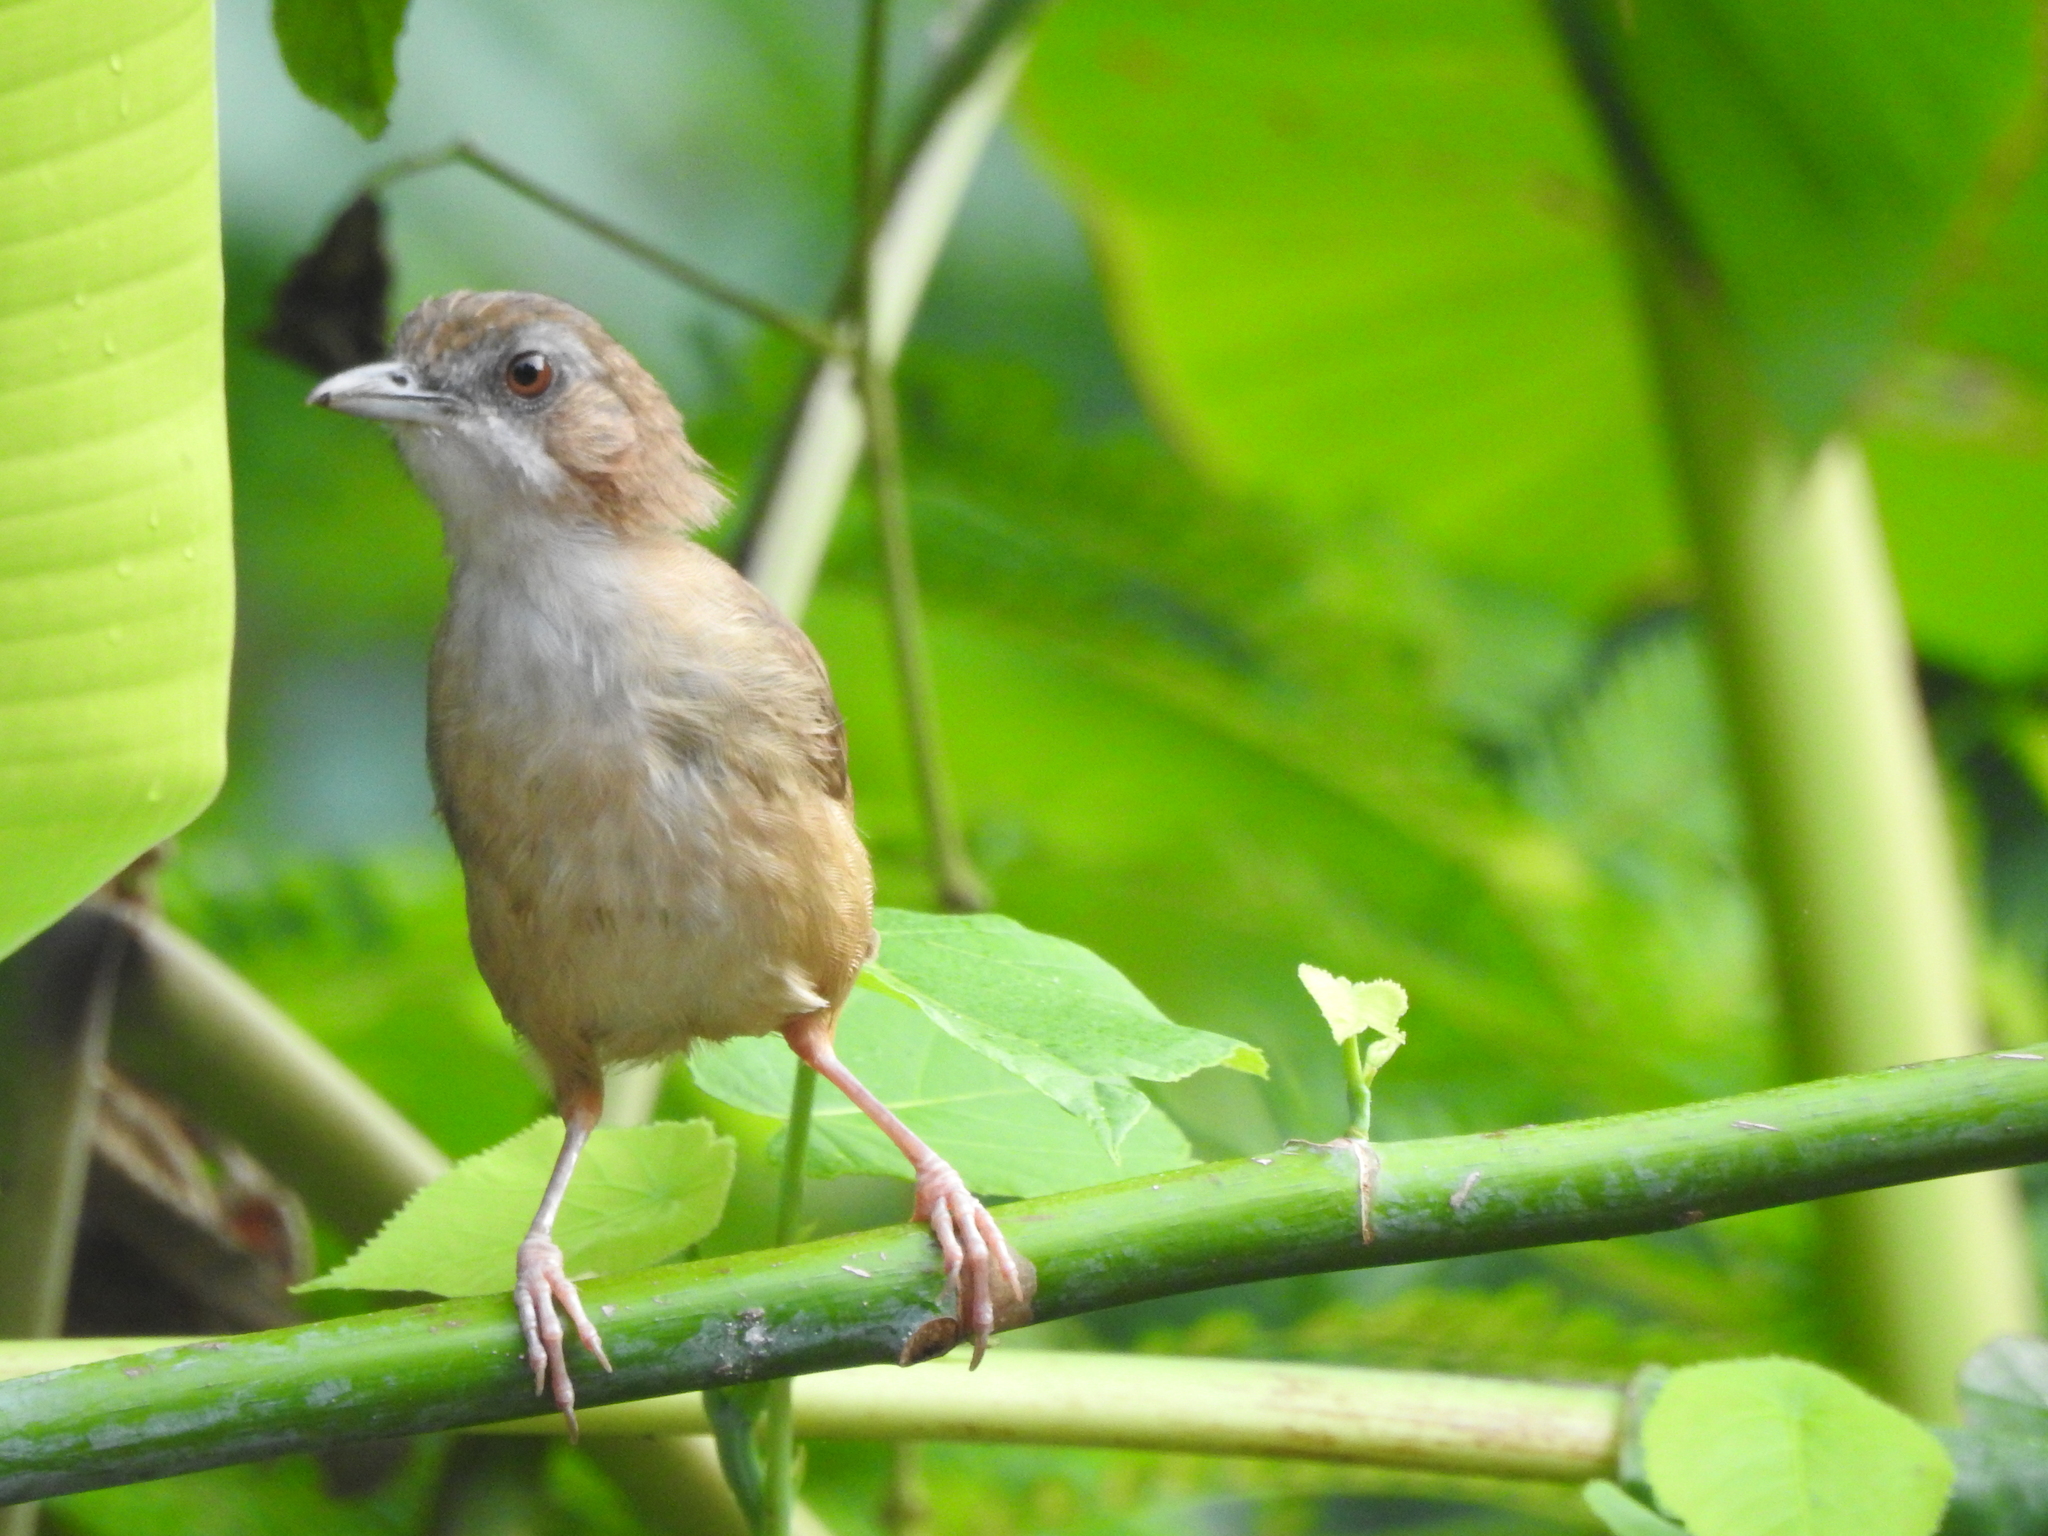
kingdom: Animalia
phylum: Chordata
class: Aves
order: Passeriformes
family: Pellorneidae
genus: Malacocincla
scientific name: Malacocincla sepiaria
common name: Horsfield's babbler
